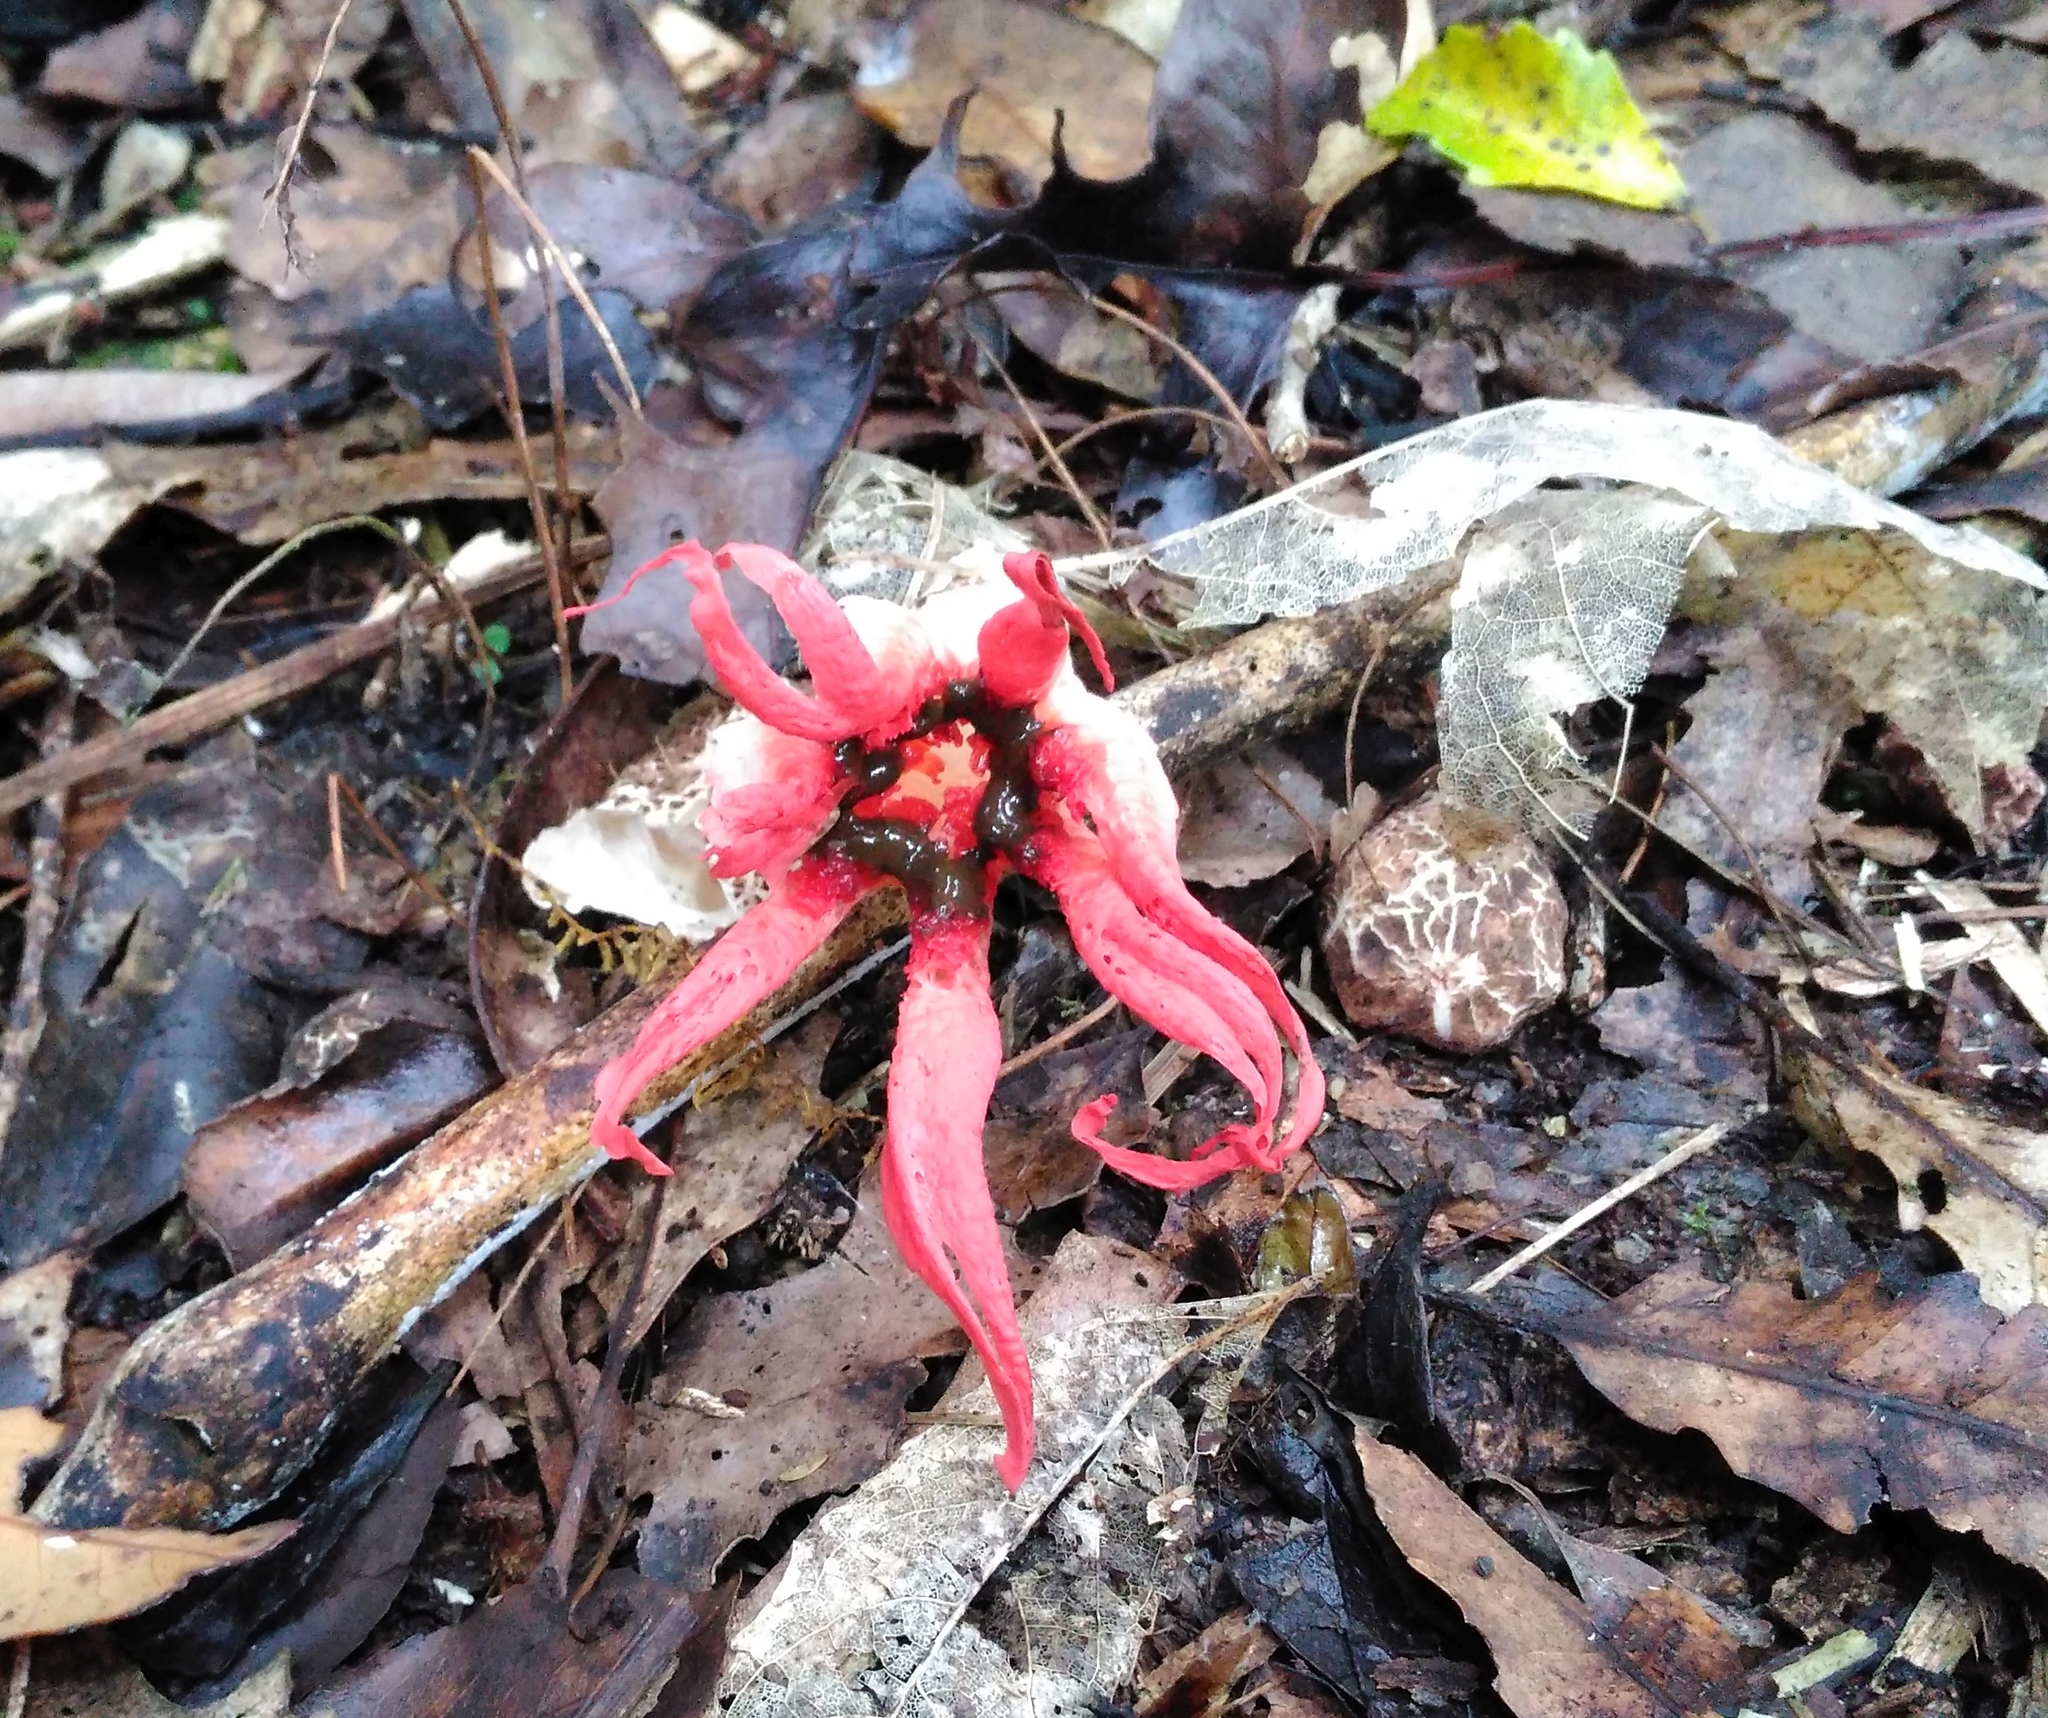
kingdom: Fungi
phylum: Basidiomycota
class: Agaricomycetes
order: Phallales
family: Phallaceae
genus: Aseroe
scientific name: Aseroe rubra
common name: Starfish fungus
